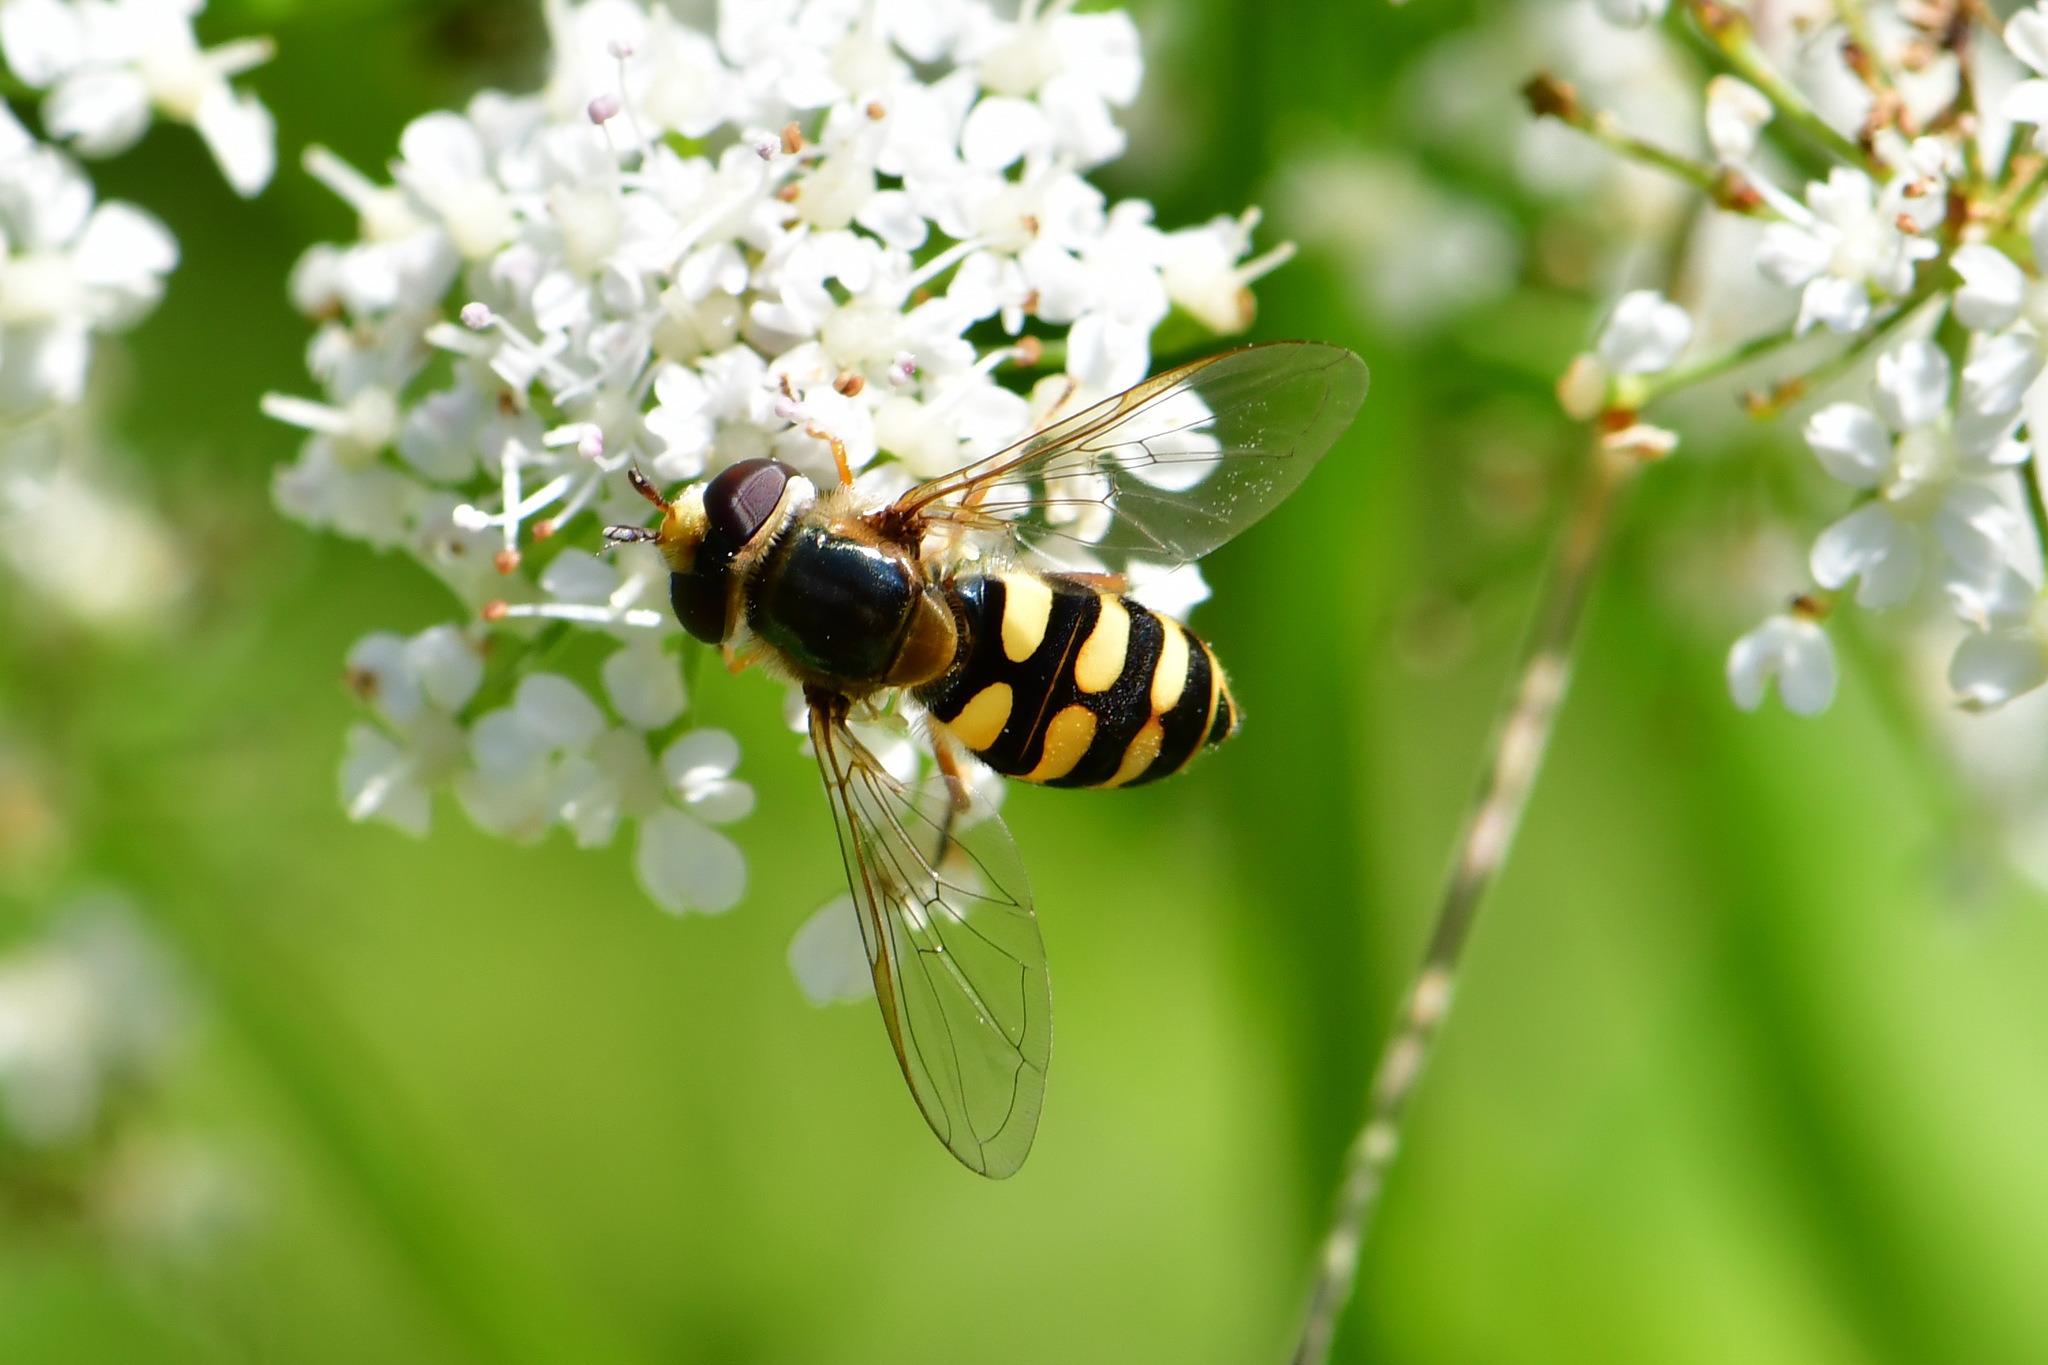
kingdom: Animalia
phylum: Arthropoda
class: Insecta
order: Diptera
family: Syrphidae
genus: Eupeodes
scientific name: Eupeodes corollae
